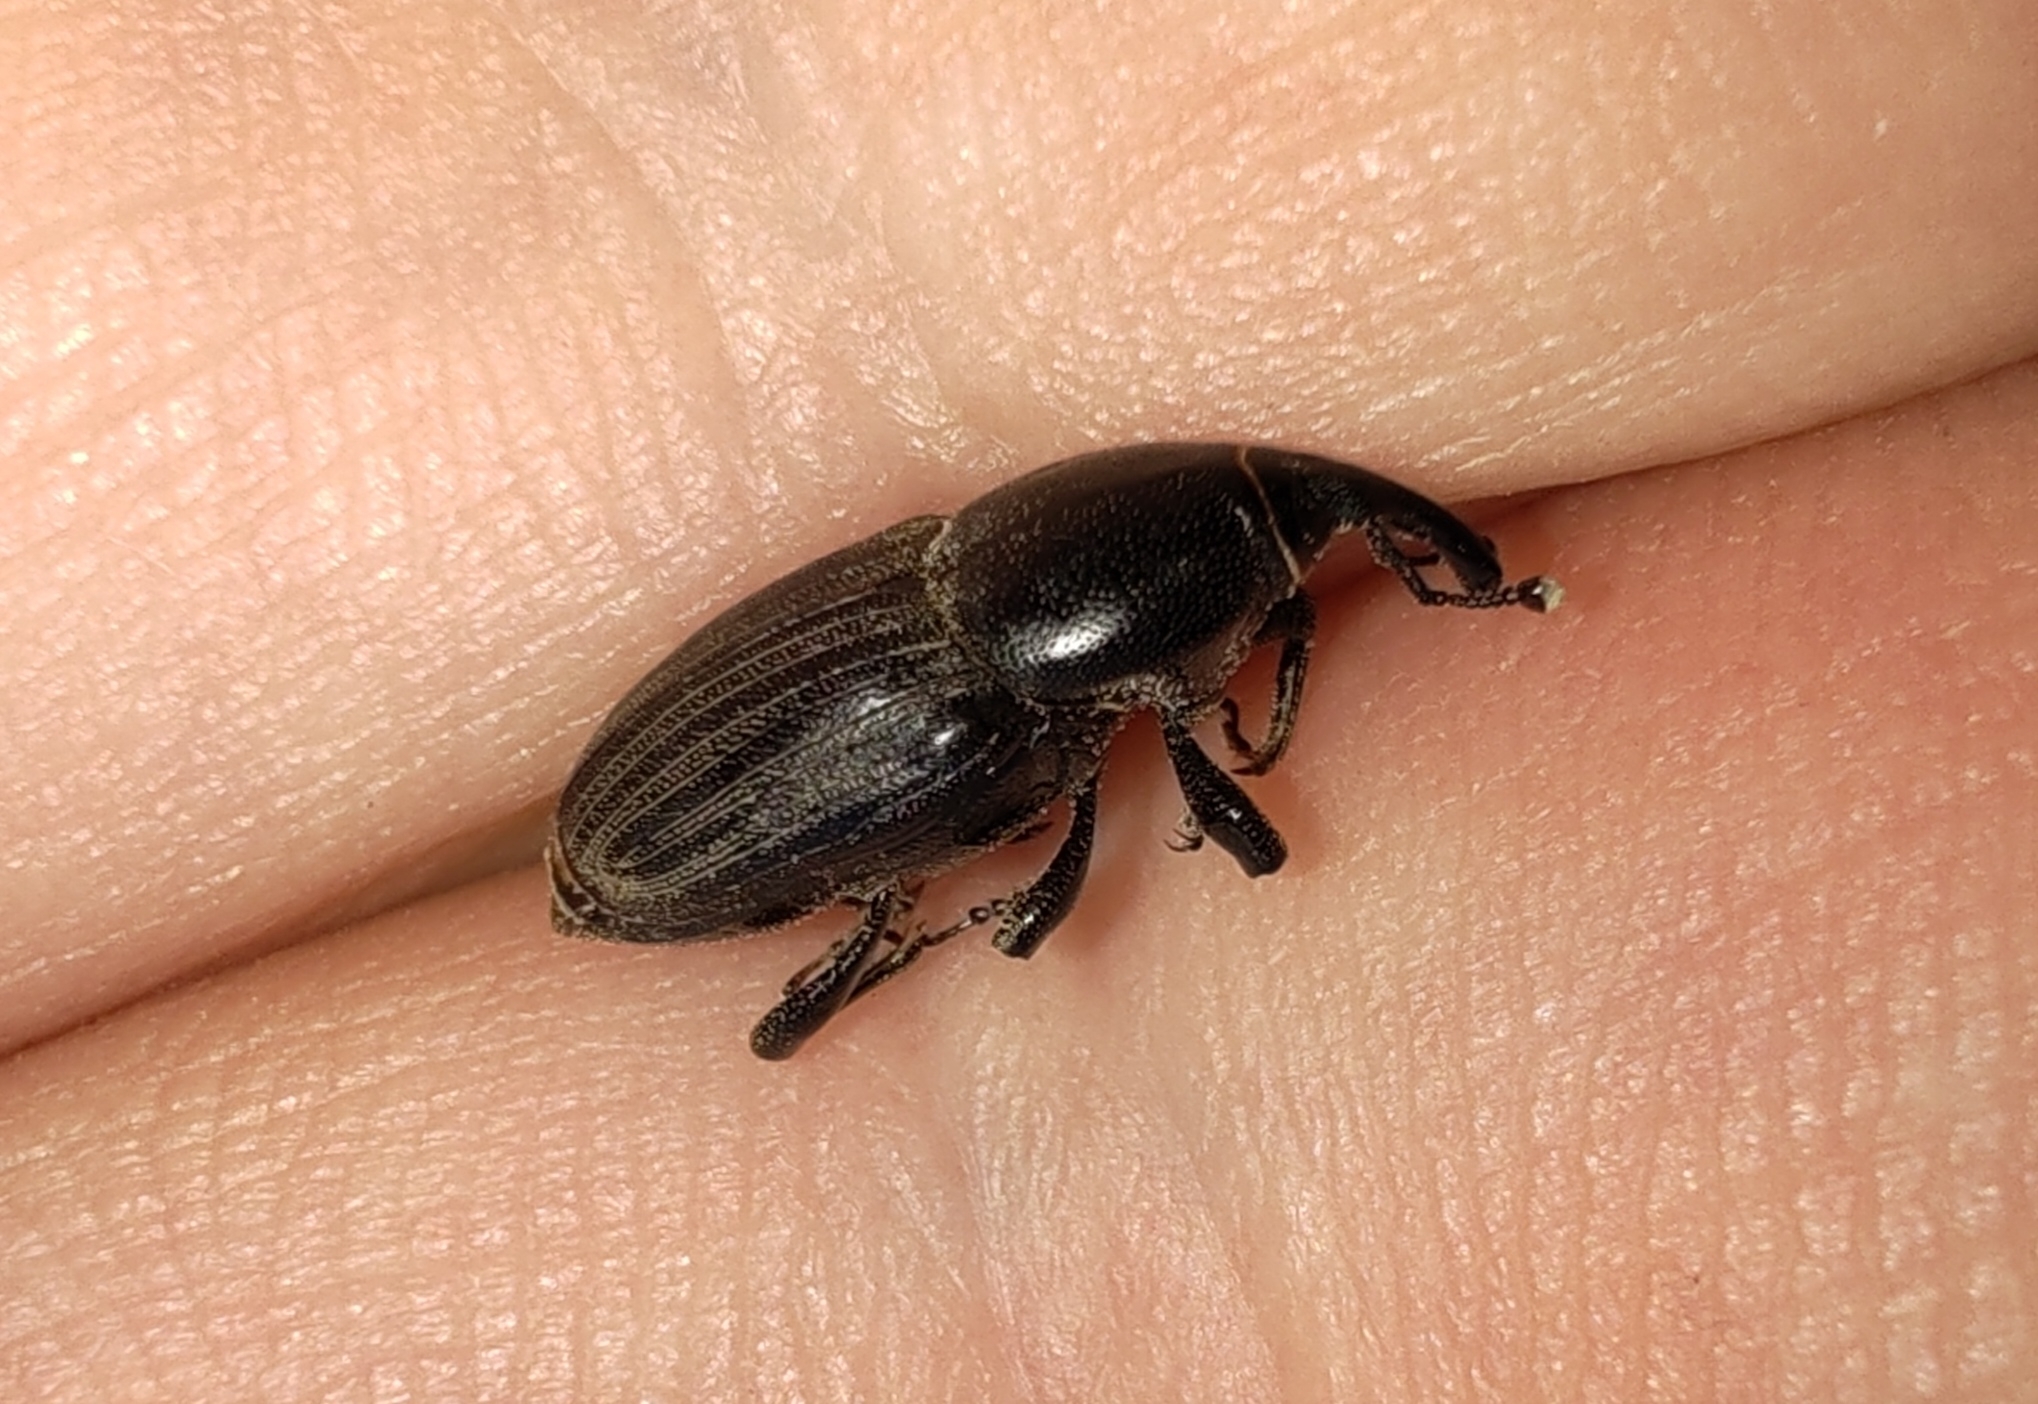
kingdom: Animalia
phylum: Arthropoda
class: Insecta
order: Coleoptera
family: Dryophthoridae
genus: Sphenophorus
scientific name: Sphenophorus striatopunctatus
